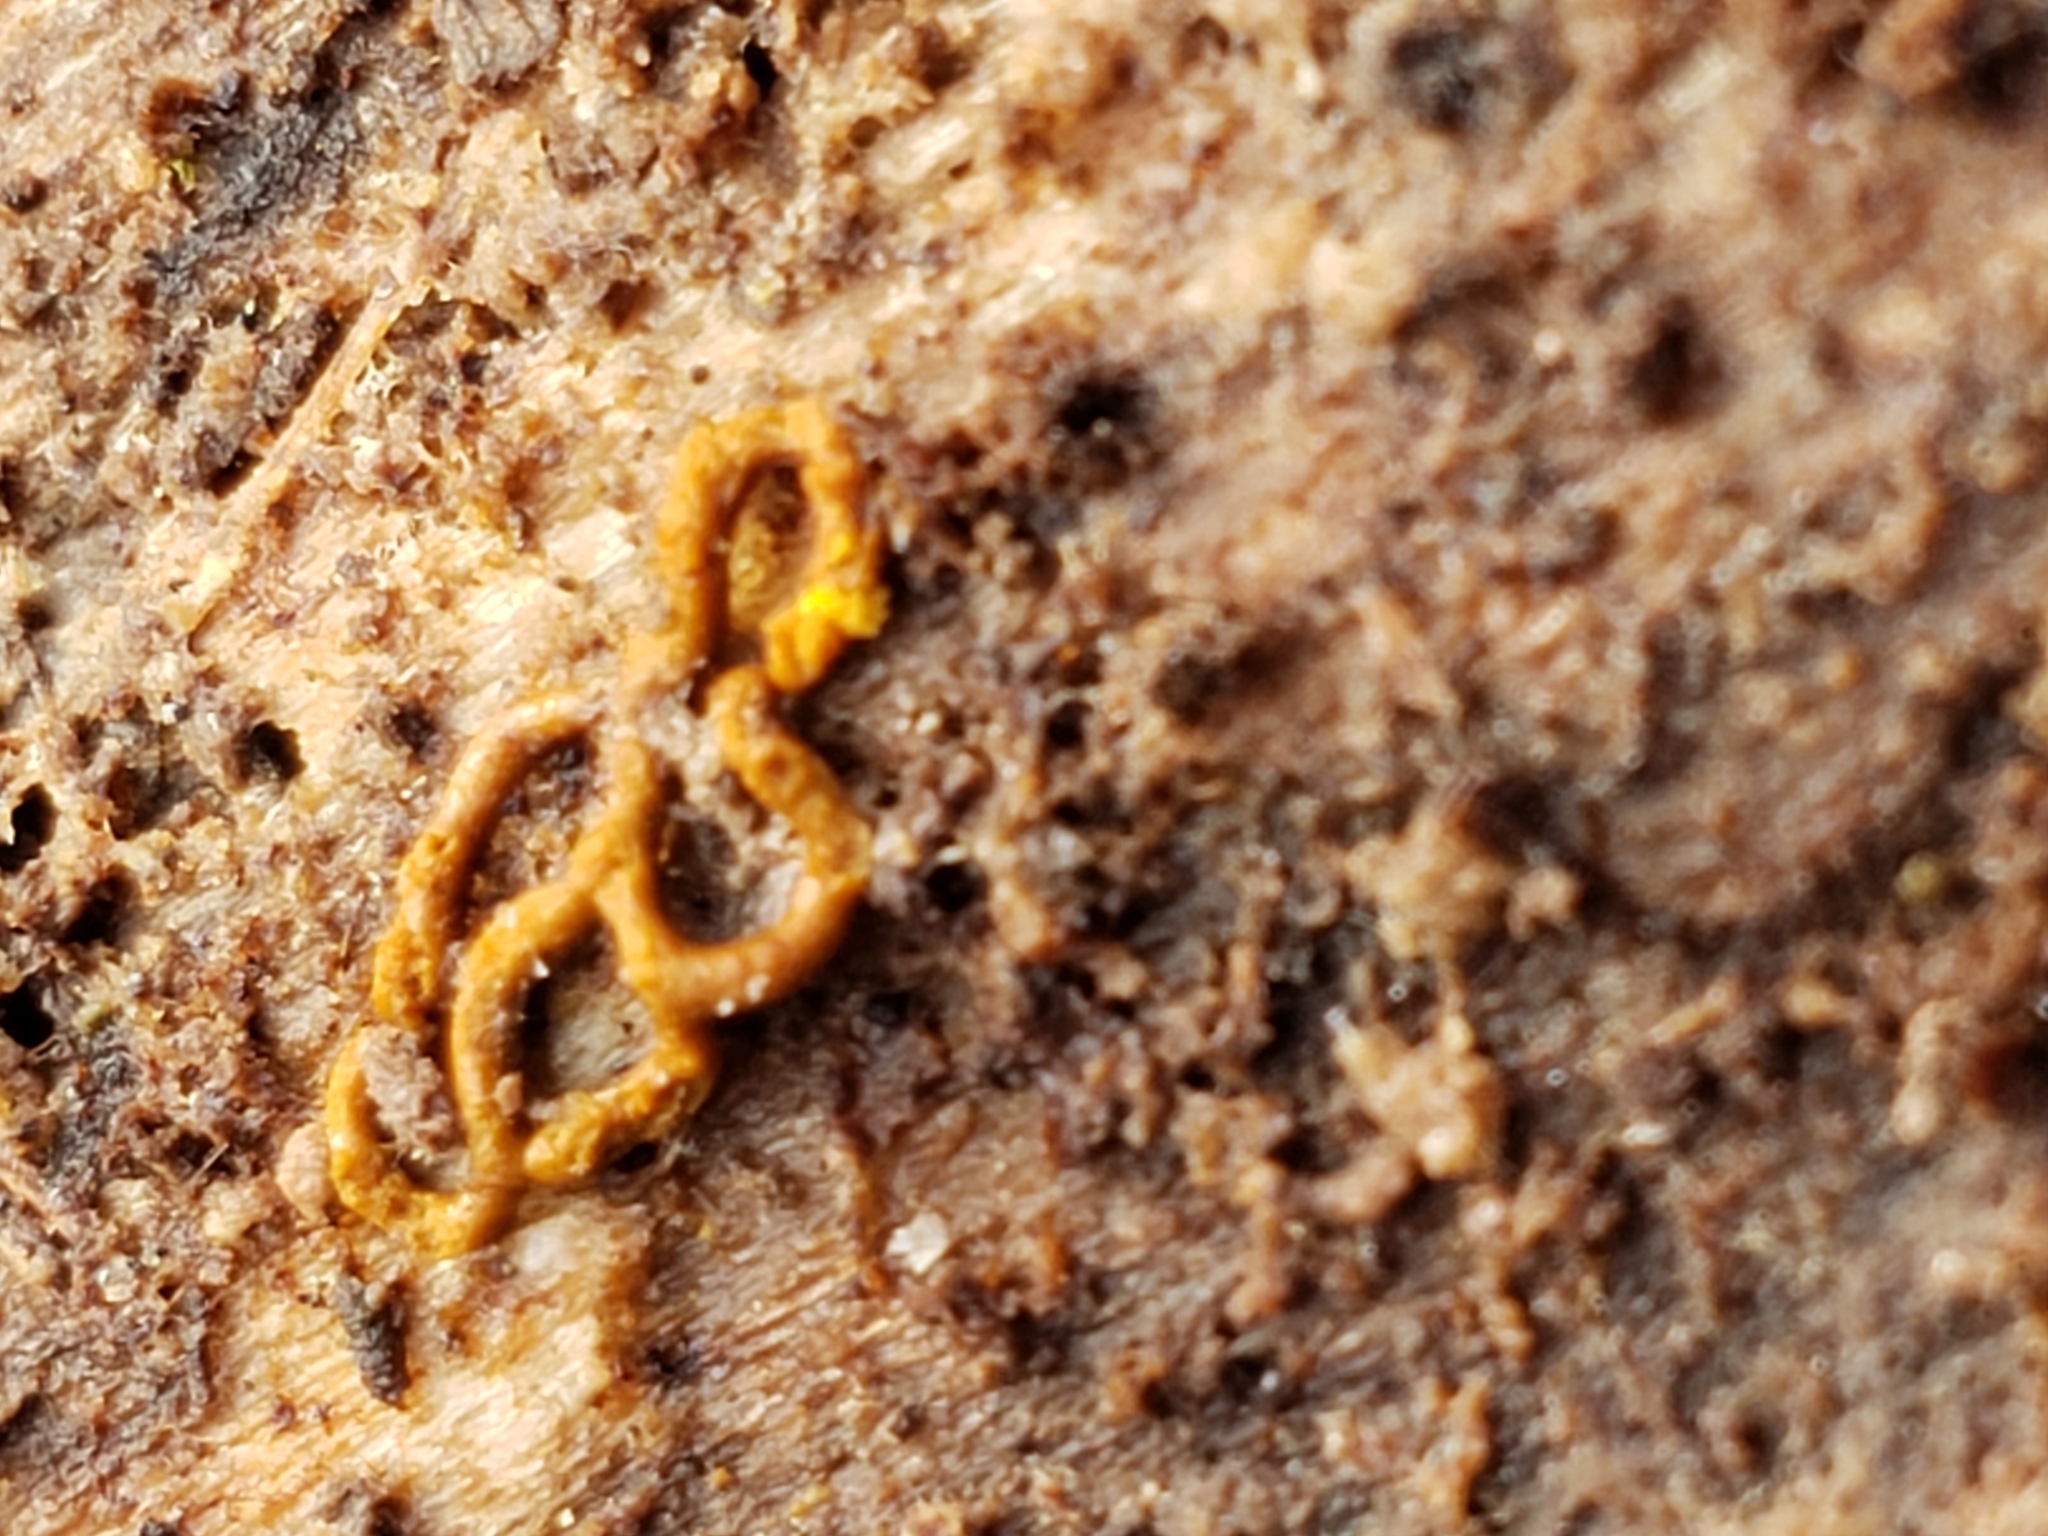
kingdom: Protozoa
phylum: Mycetozoa
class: Myxomycetes
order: Trichiales
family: Arcyriaceae
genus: Hemitrichia
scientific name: Hemitrichia serpula
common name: Pretzel slime mold
